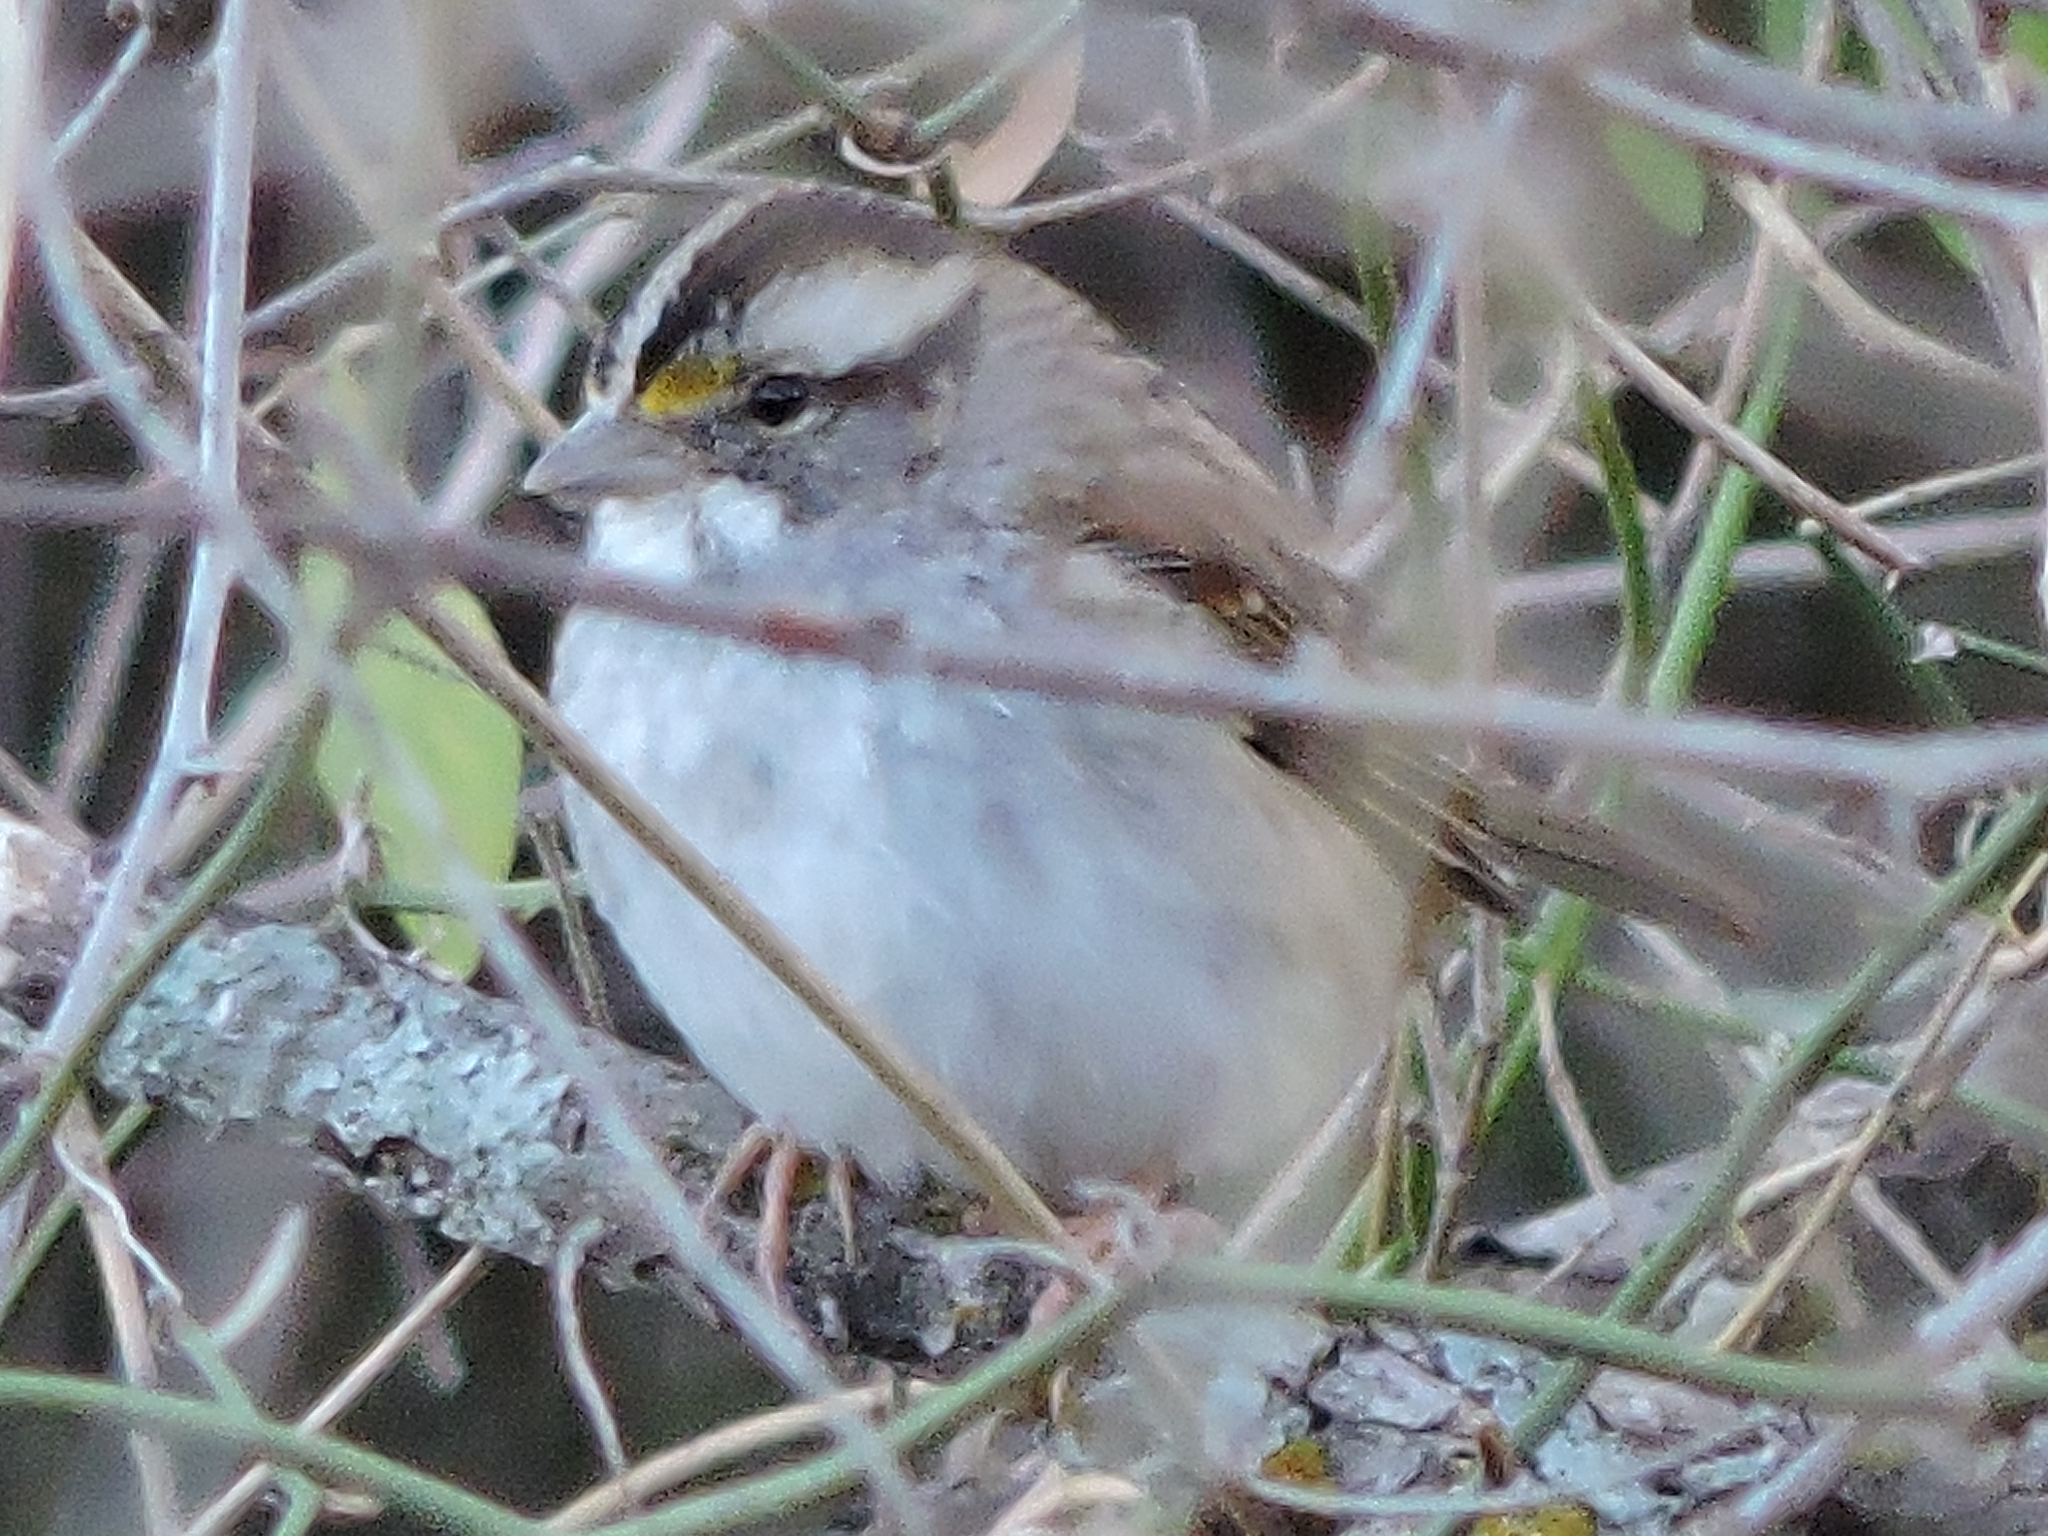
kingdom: Animalia
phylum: Chordata
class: Aves
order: Passeriformes
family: Passerellidae
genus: Zonotrichia
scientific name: Zonotrichia albicollis
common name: White-throated sparrow
